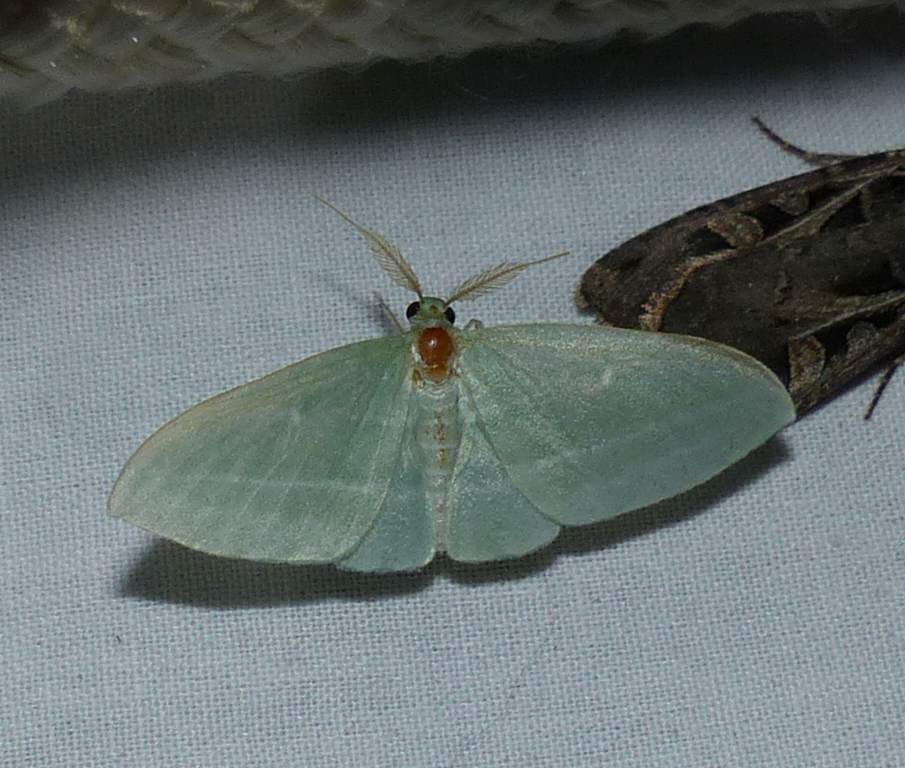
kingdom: Animalia
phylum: Arthropoda
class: Insecta
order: Lepidoptera
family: Geometridae
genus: Dyspteris
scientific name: Dyspteris abortivaria
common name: Bad-wing
